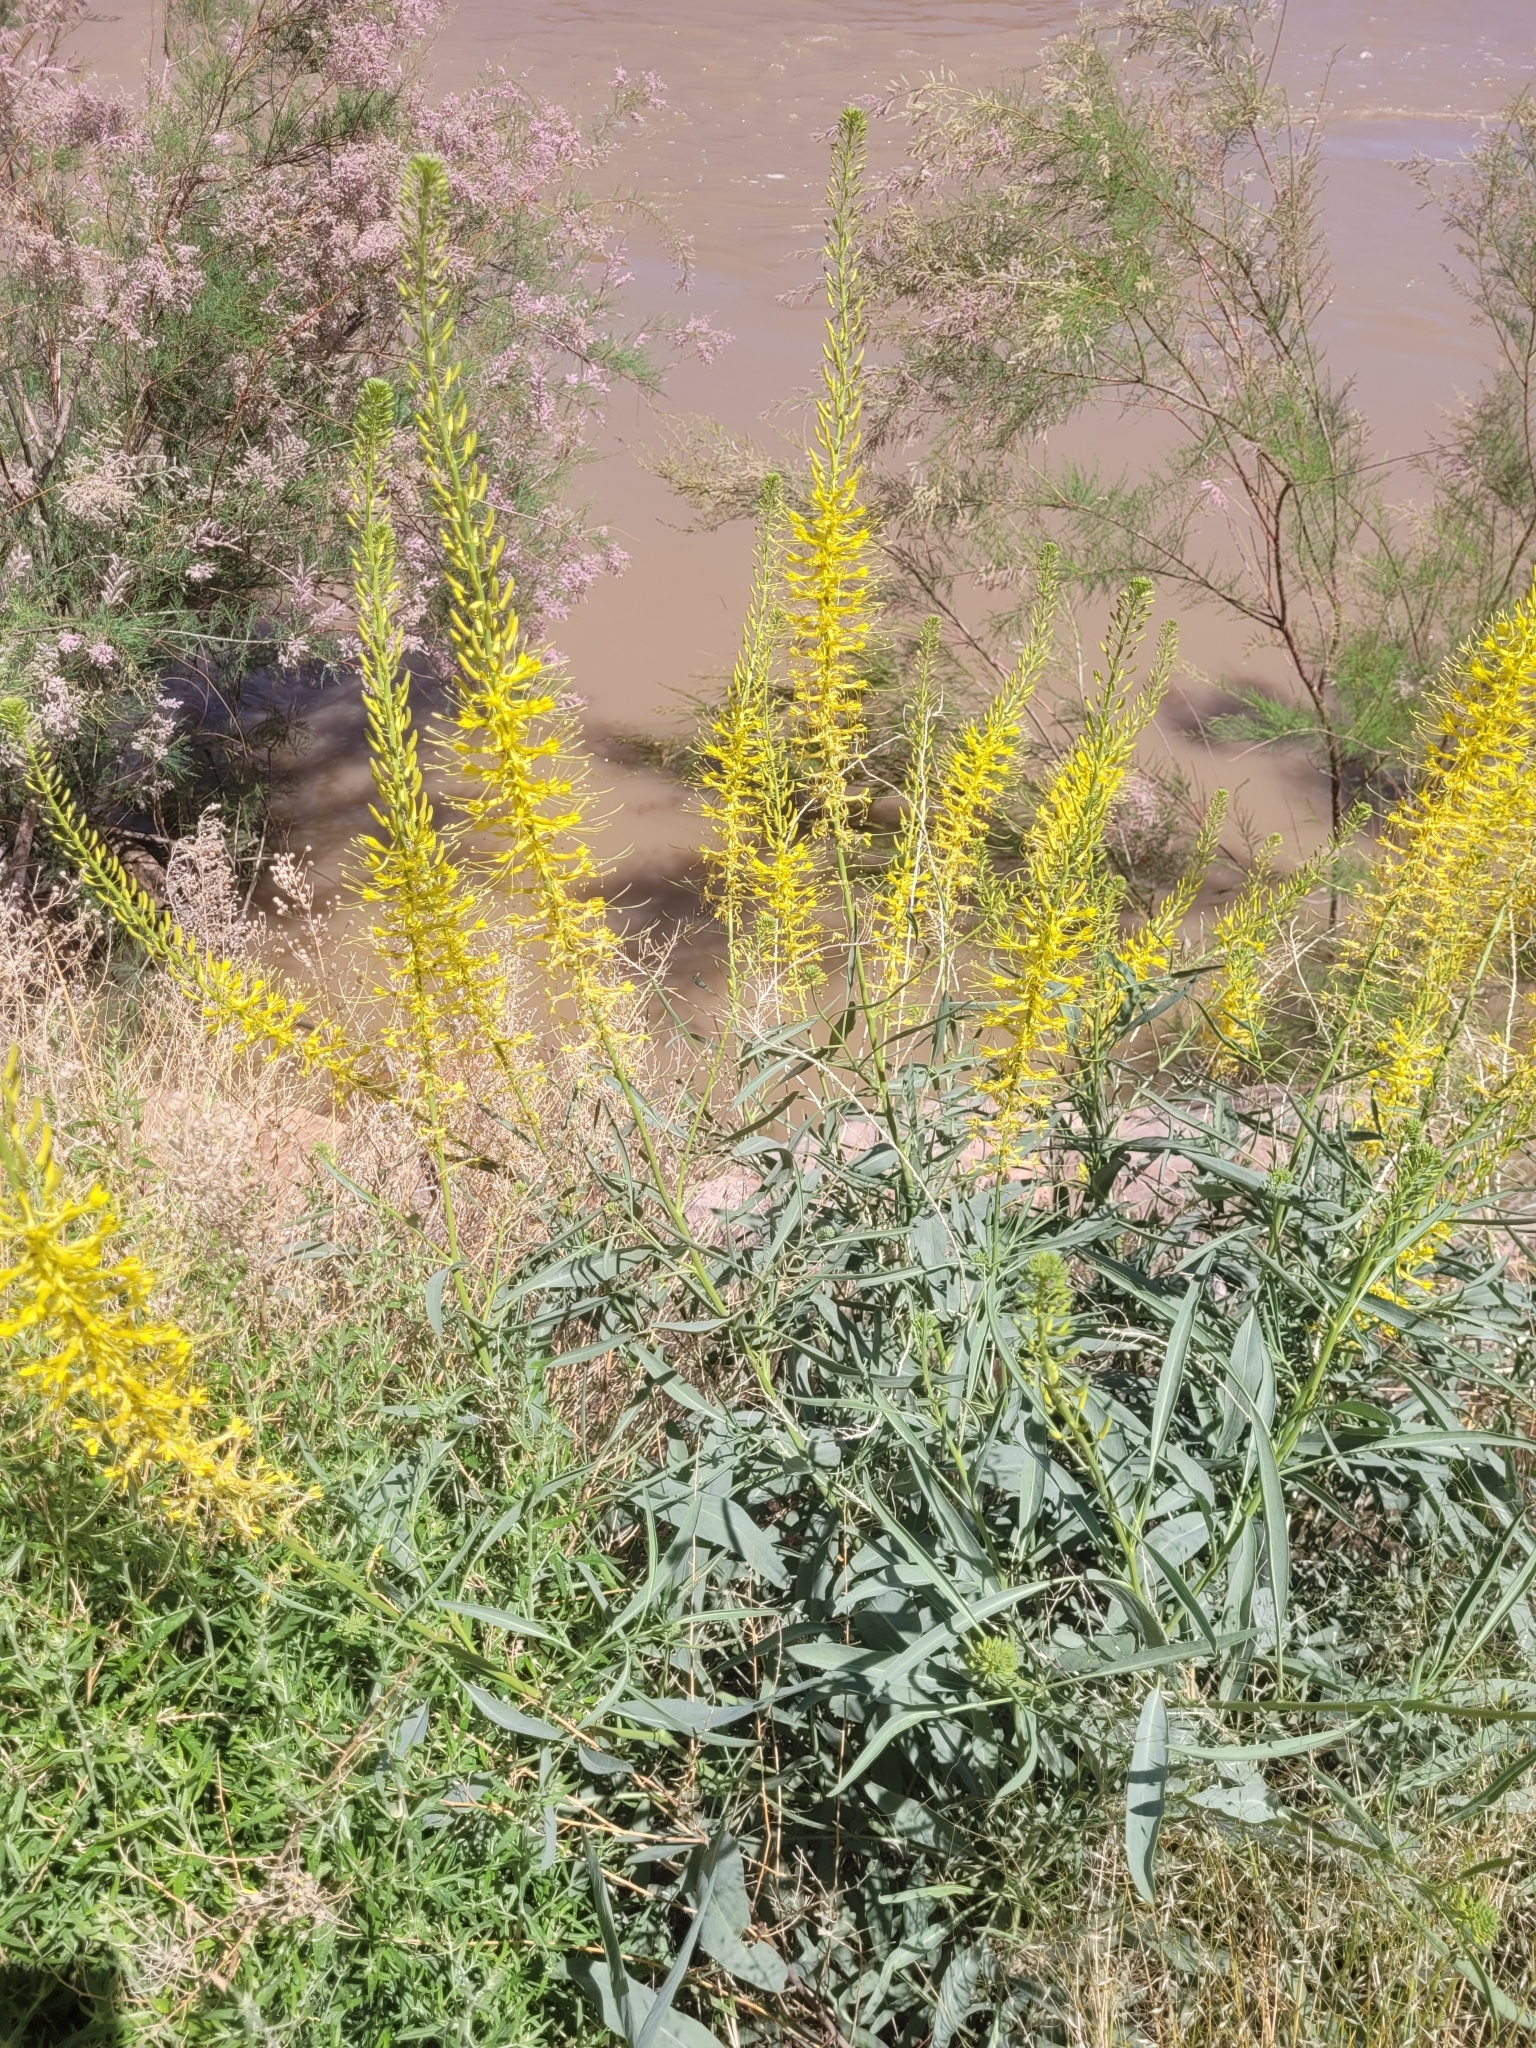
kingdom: Plantae
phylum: Tracheophyta
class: Magnoliopsida
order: Brassicales
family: Brassicaceae
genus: Stanleya
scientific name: Stanleya pinnata
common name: Prince's-plume
